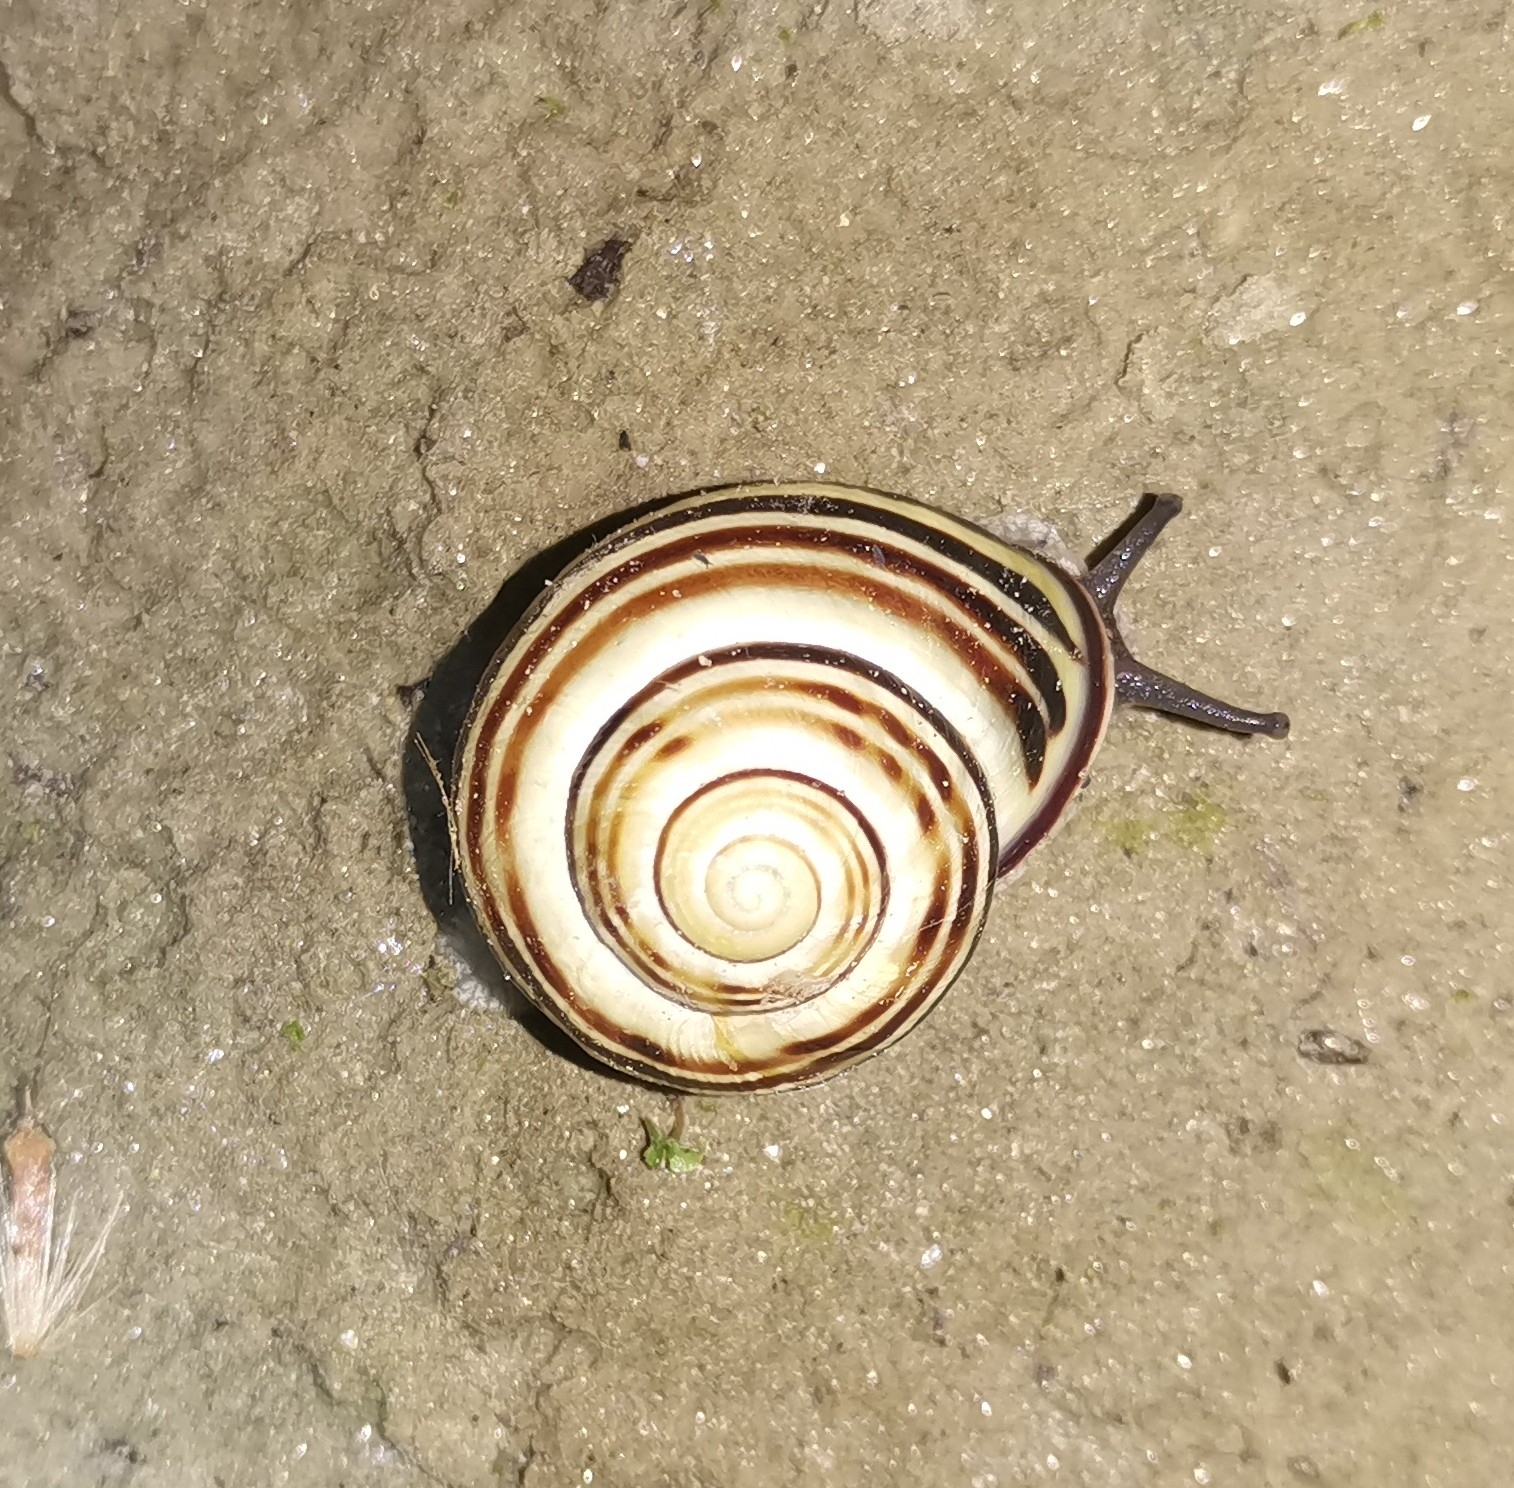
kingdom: Animalia
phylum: Mollusca
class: Gastropoda
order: Stylommatophora
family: Helicidae
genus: Cepaea
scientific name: Cepaea nemoralis
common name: Grovesnail
